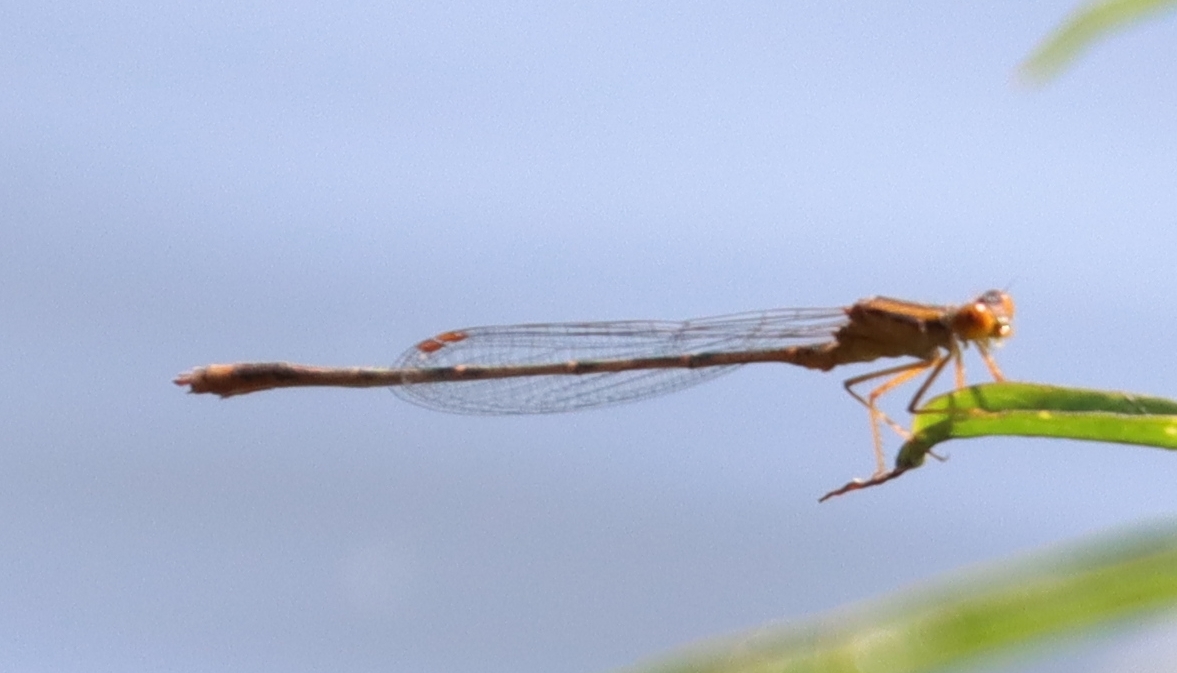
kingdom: Animalia
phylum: Arthropoda
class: Insecta
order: Odonata
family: Coenagrionidae
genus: Enallagma
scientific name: Enallagma signatum
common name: Orange bluet
